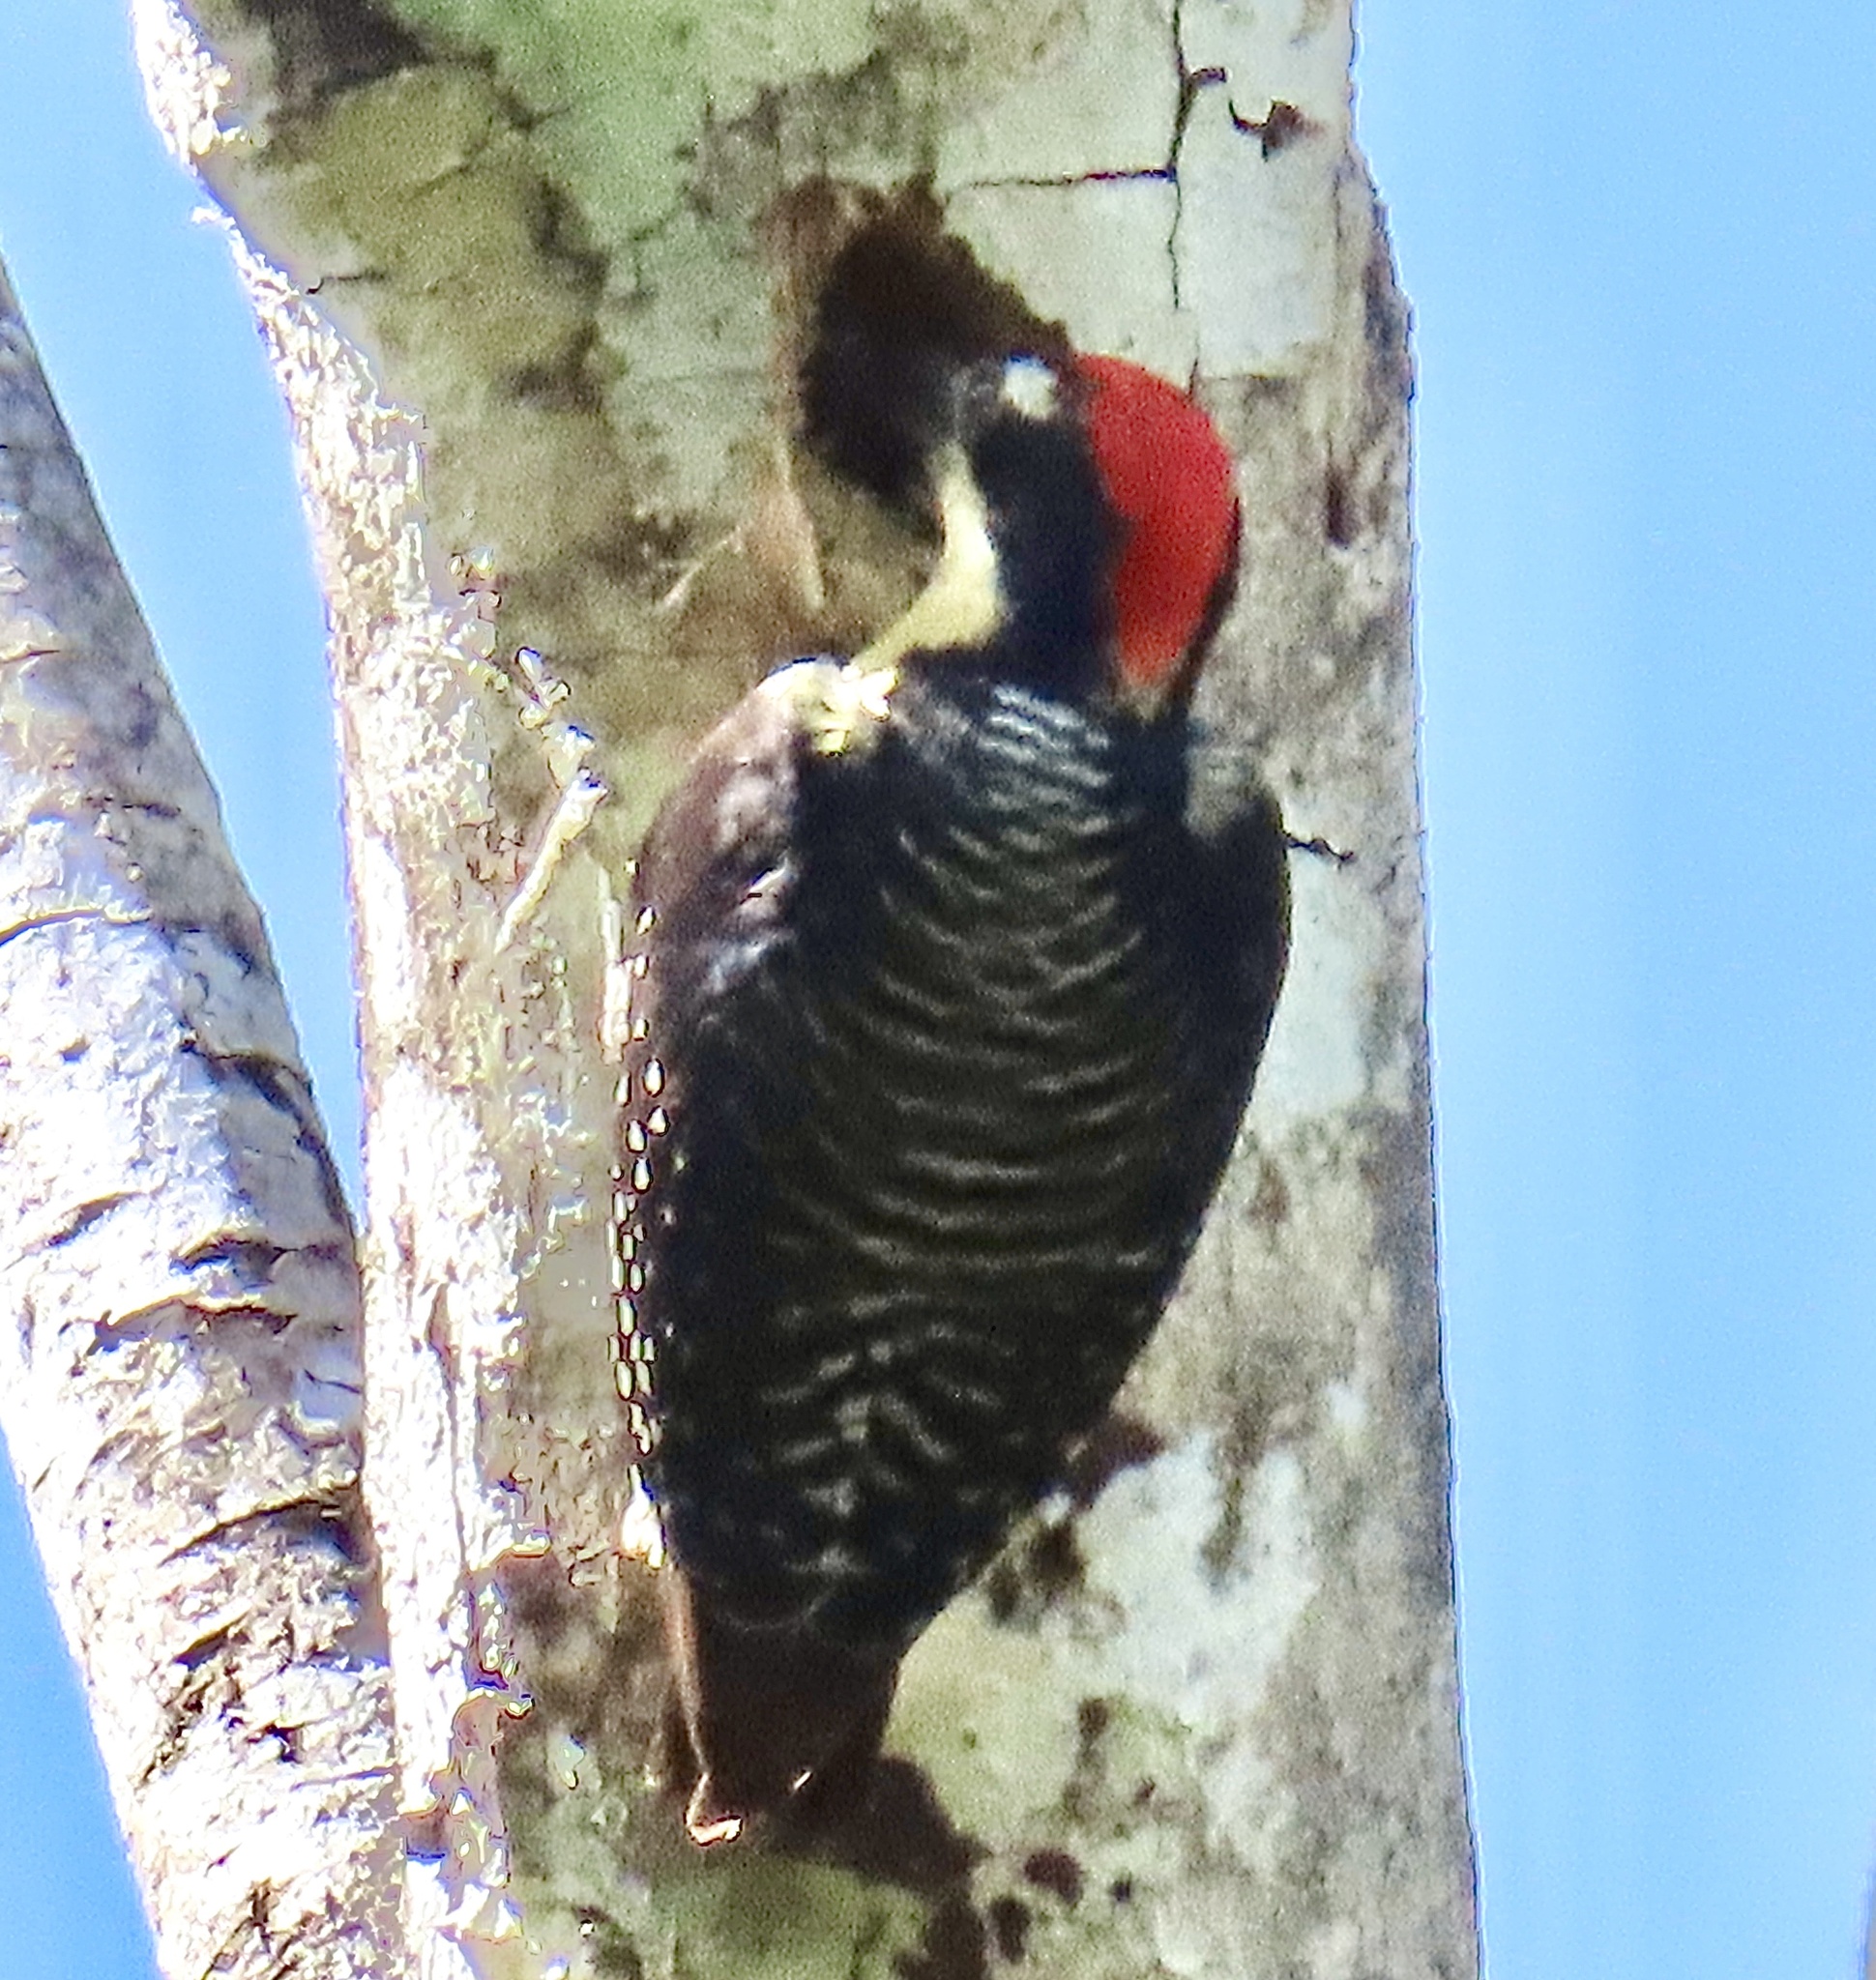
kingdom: Animalia
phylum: Chordata
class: Aves
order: Piciformes
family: Picidae
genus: Melanerpes
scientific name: Melanerpes pucherani
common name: Black-cheeked woodpecker
